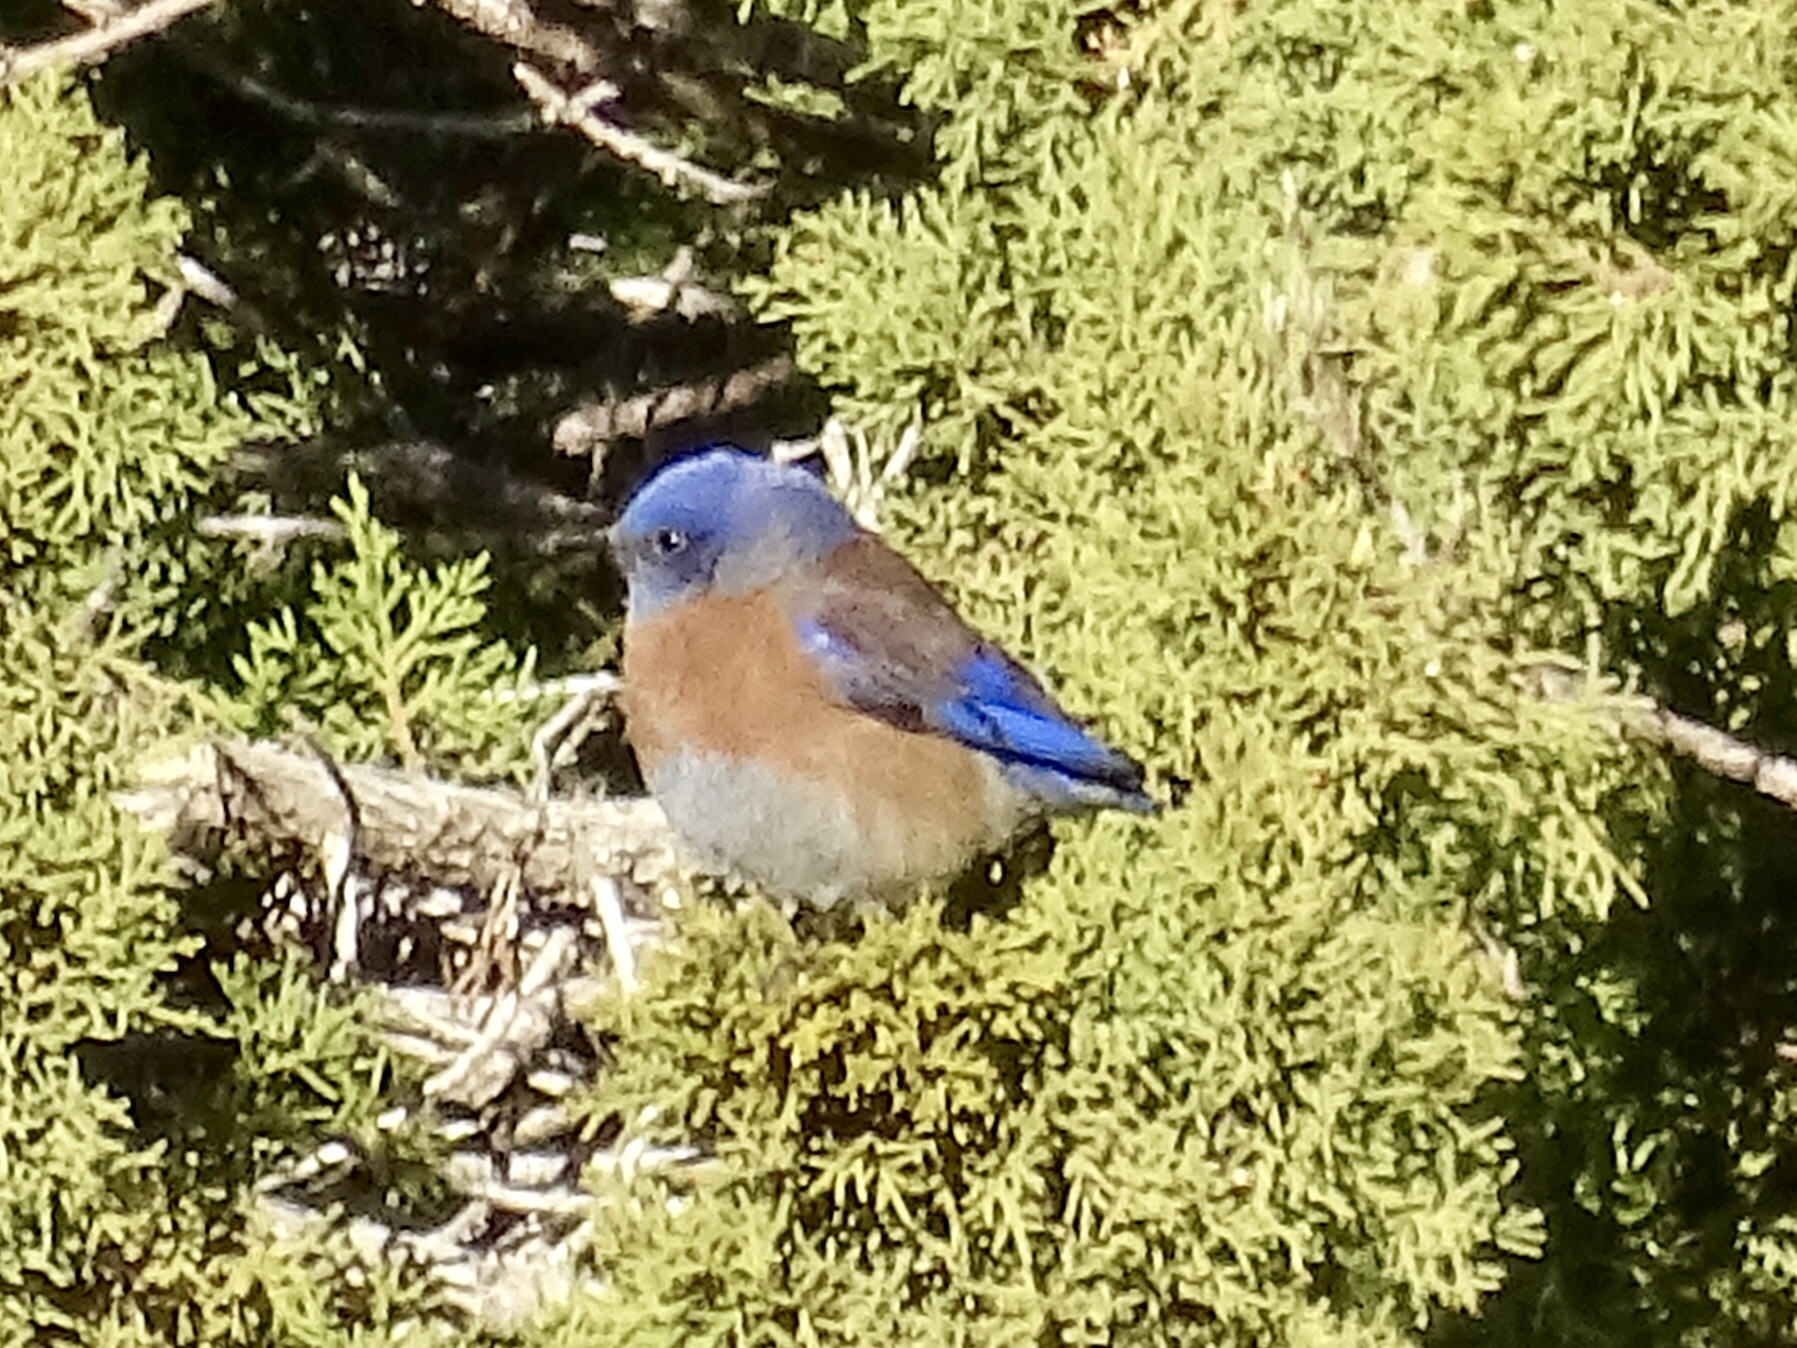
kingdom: Animalia
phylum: Chordata
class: Aves
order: Passeriformes
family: Turdidae
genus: Sialia
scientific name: Sialia mexicana
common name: Western bluebird
